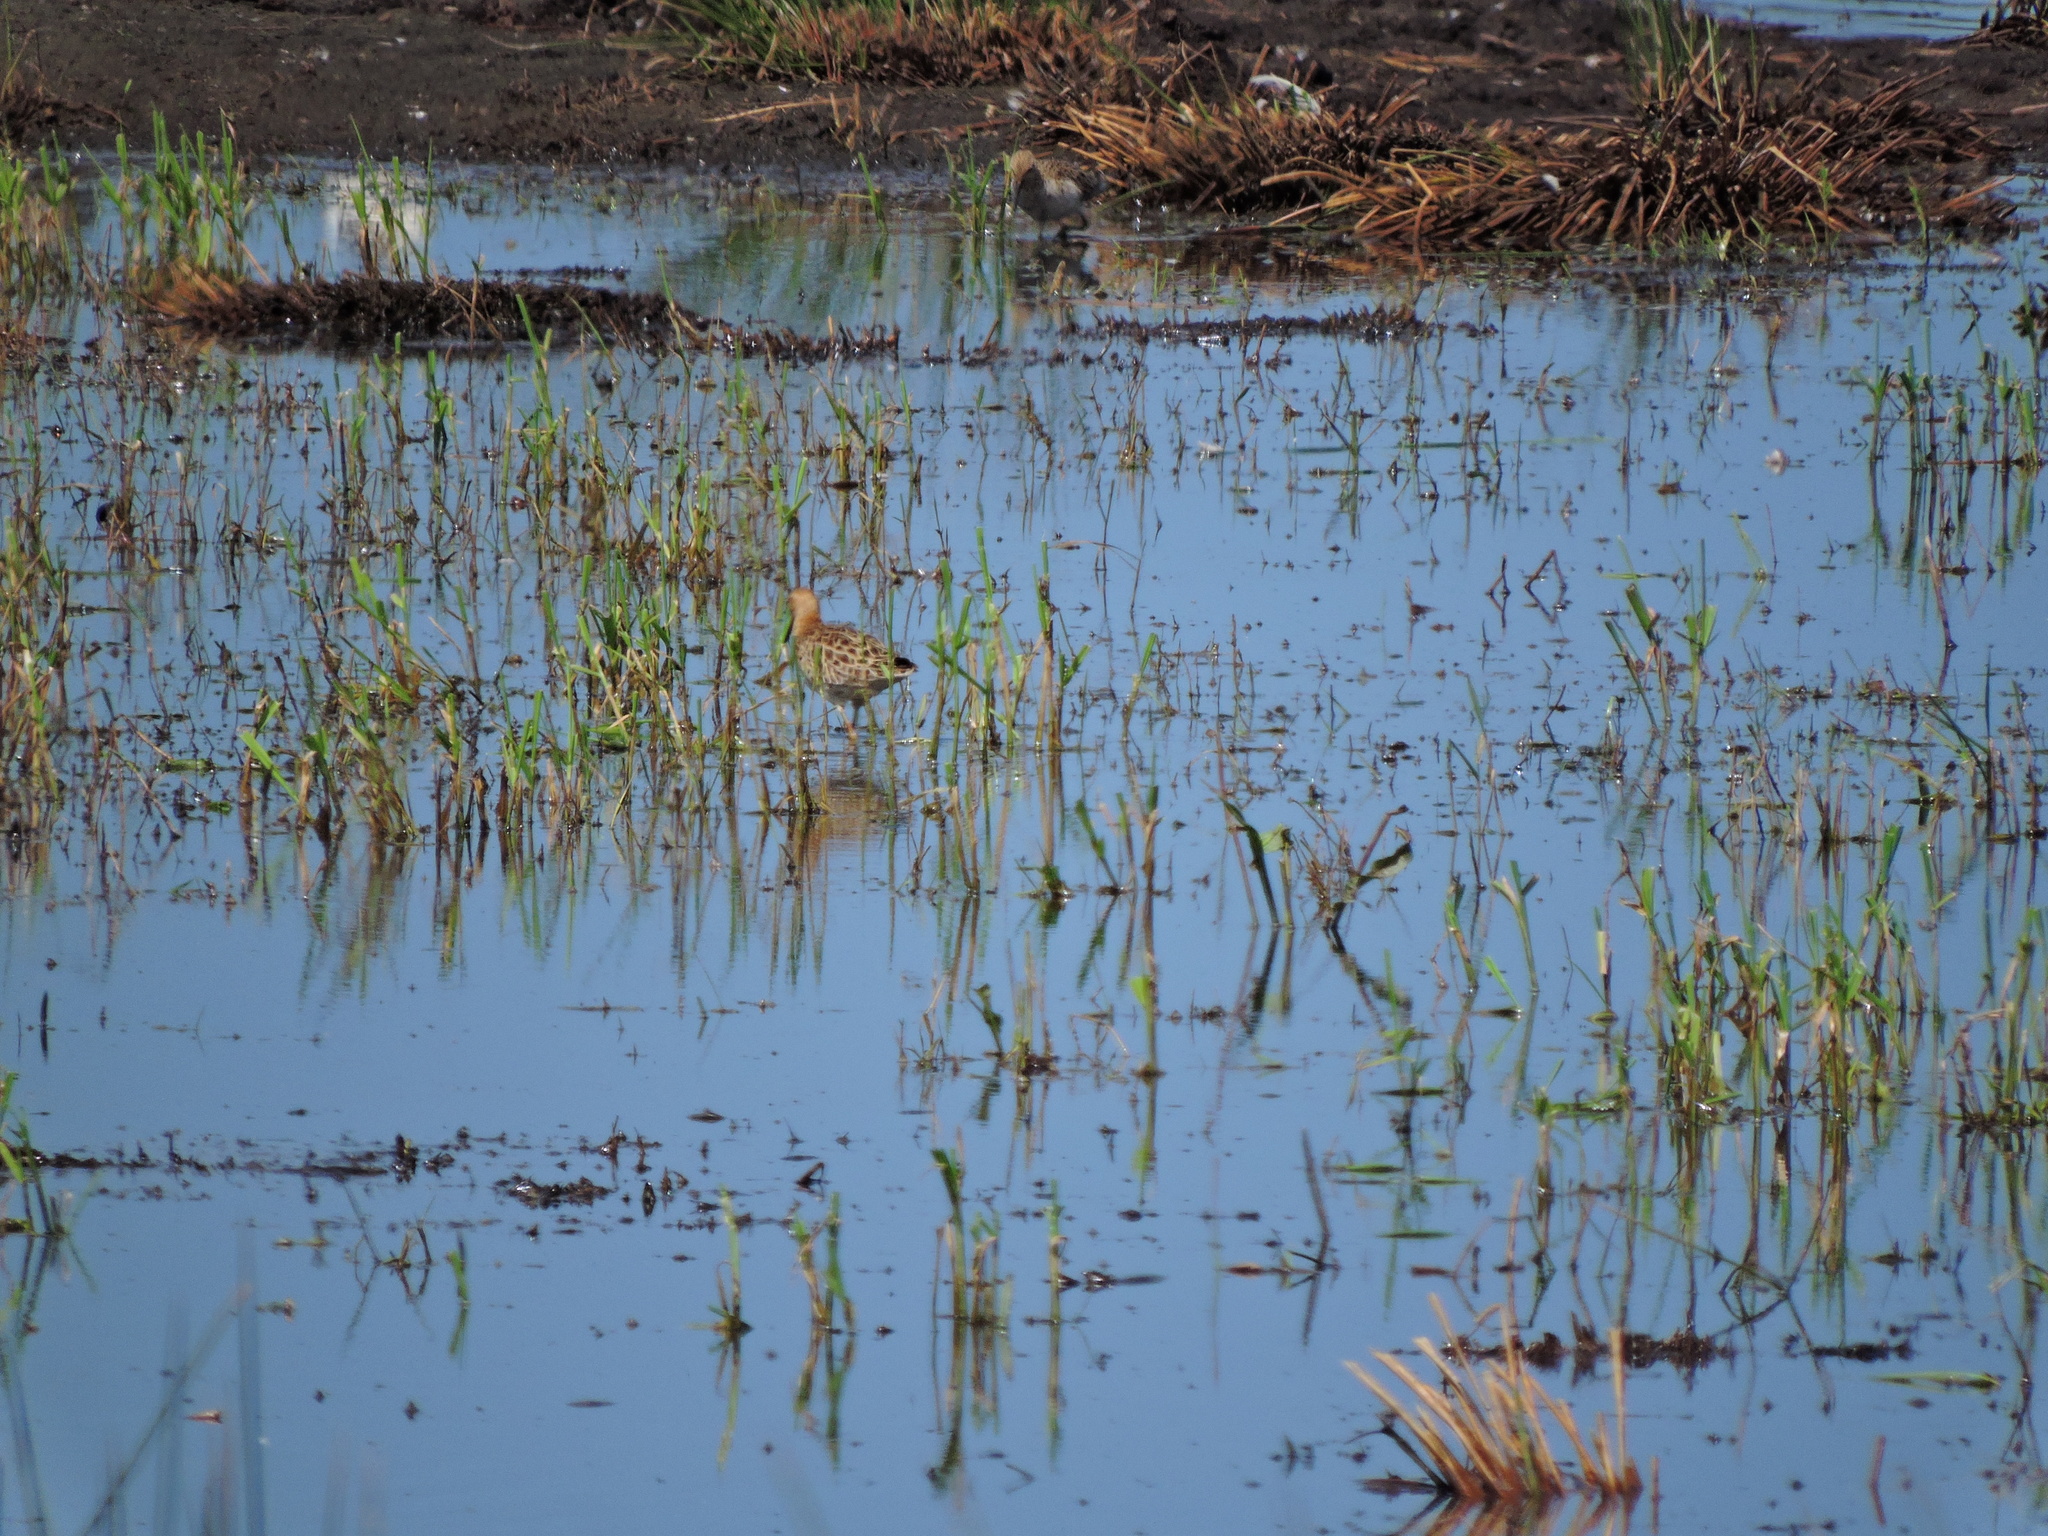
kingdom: Animalia
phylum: Chordata
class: Aves
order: Charadriiformes
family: Scolopacidae
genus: Calidris
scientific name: Calidris pugnax
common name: Ruff
